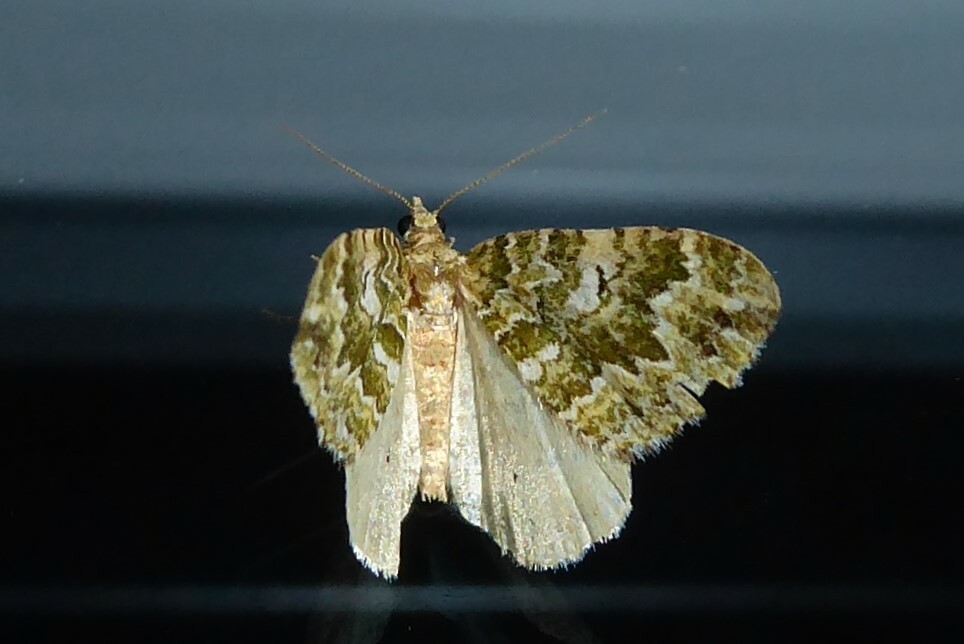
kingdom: Animalia
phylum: Arthropoda
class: Insecta
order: Lepidoptera
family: Geometridae
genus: Asaphodes
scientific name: Asaphodes beata
